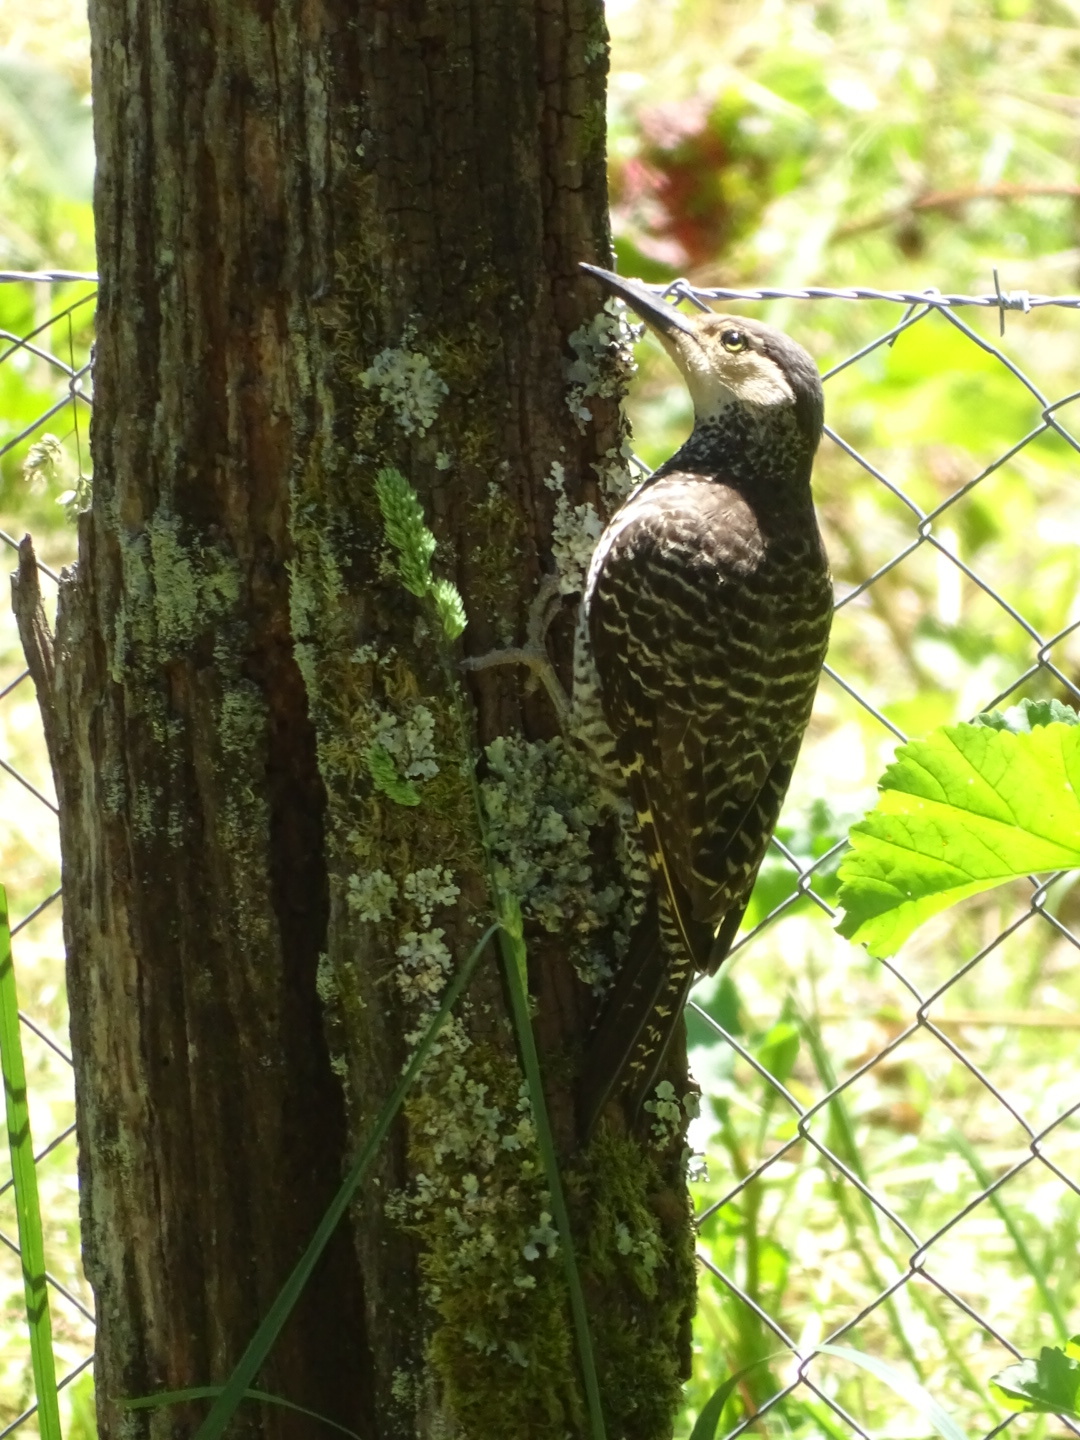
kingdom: Animalia
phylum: Chordata
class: Aves
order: Piciformes
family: Picidae
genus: Colaptes
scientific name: Colaptes pitius
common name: Chilean flicker
